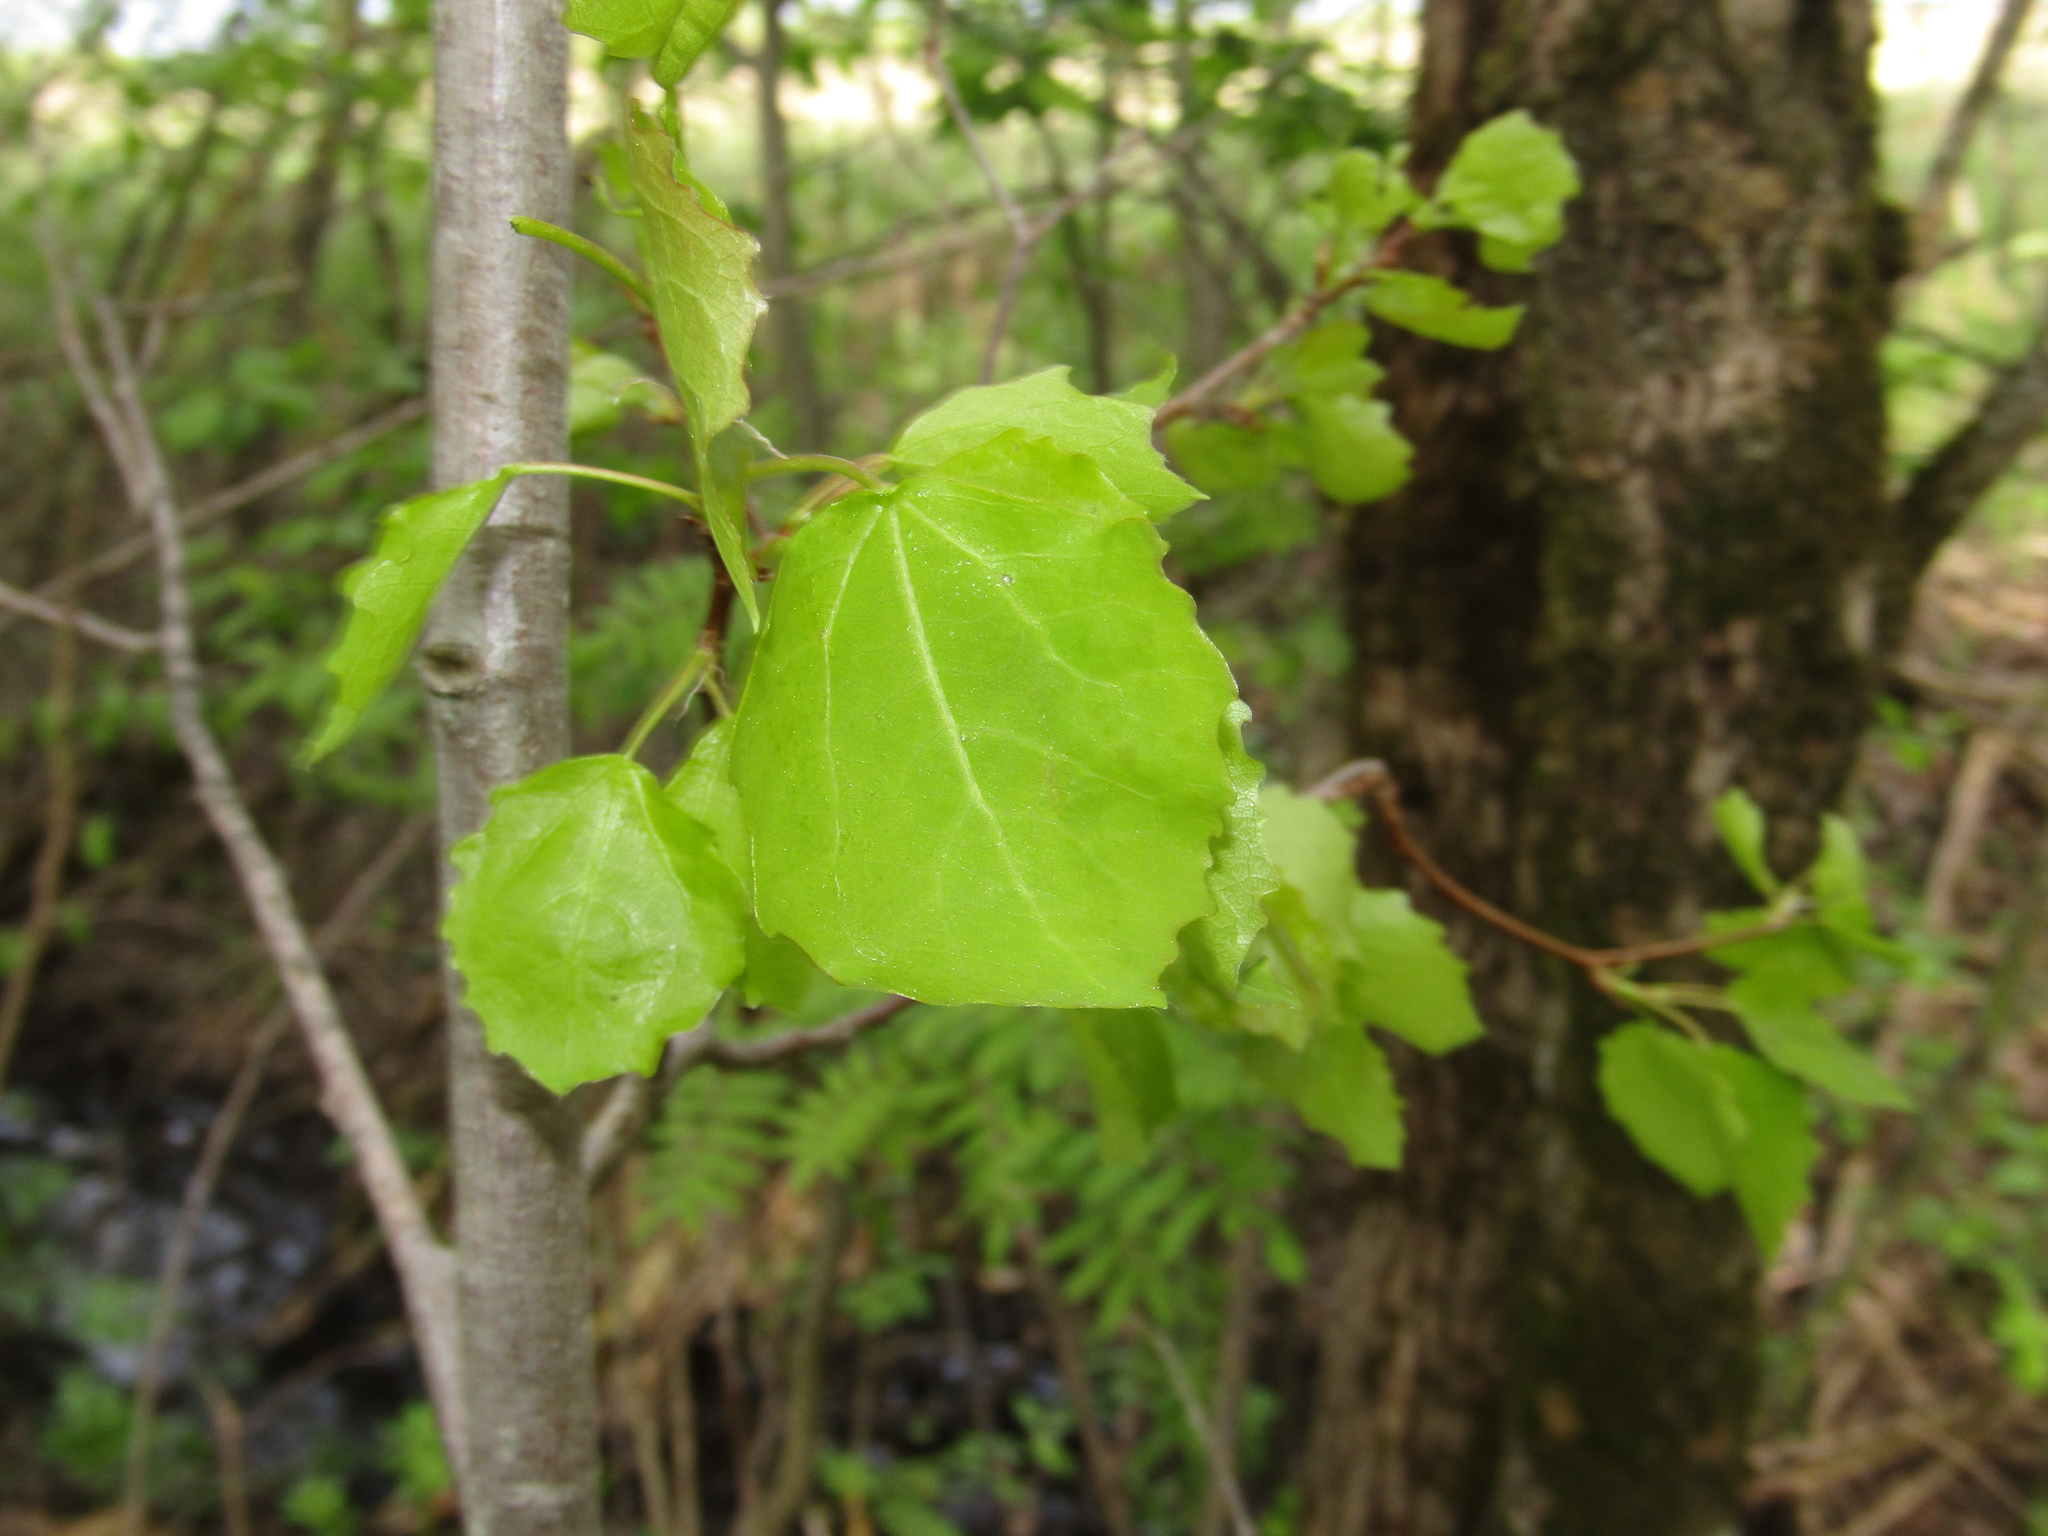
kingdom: Plantae
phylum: Tracheophyta
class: Magnoliopsida
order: Malpighiales
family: Salicaceae
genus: Populus
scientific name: Populus tremula
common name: European aspen
